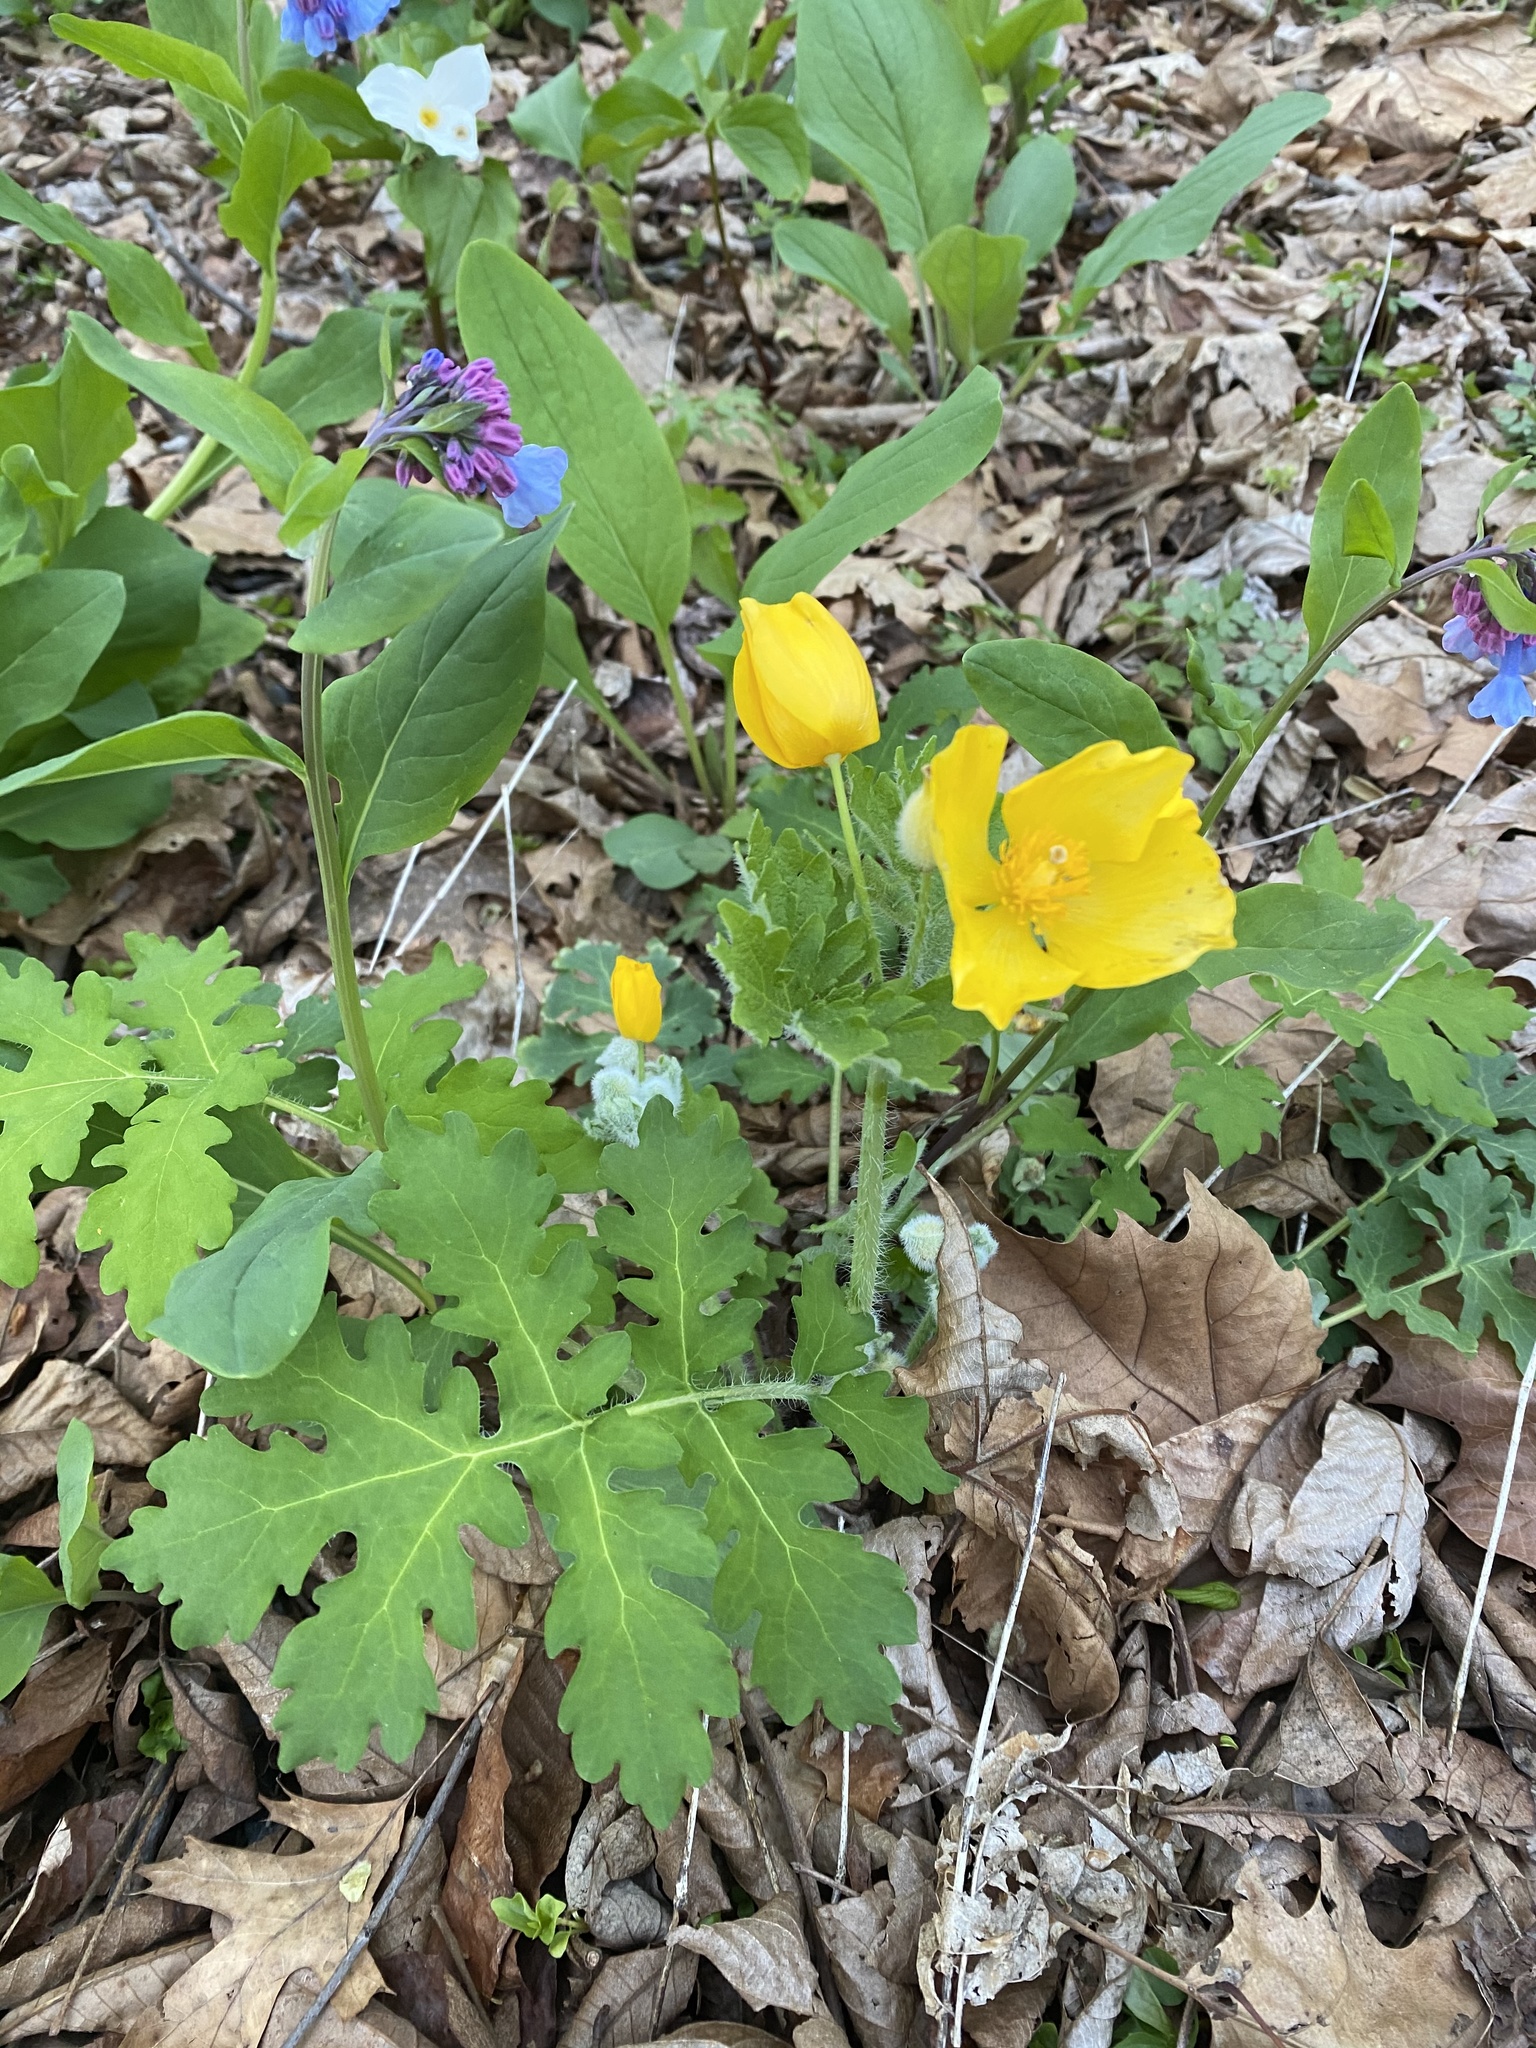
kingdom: Plantae
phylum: Tracheophyta
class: Magnoliopsida
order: Ranunculales
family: Papaveraceae
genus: Stylophorum
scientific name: Stylophorum diphyllum
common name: Celandine poppy
